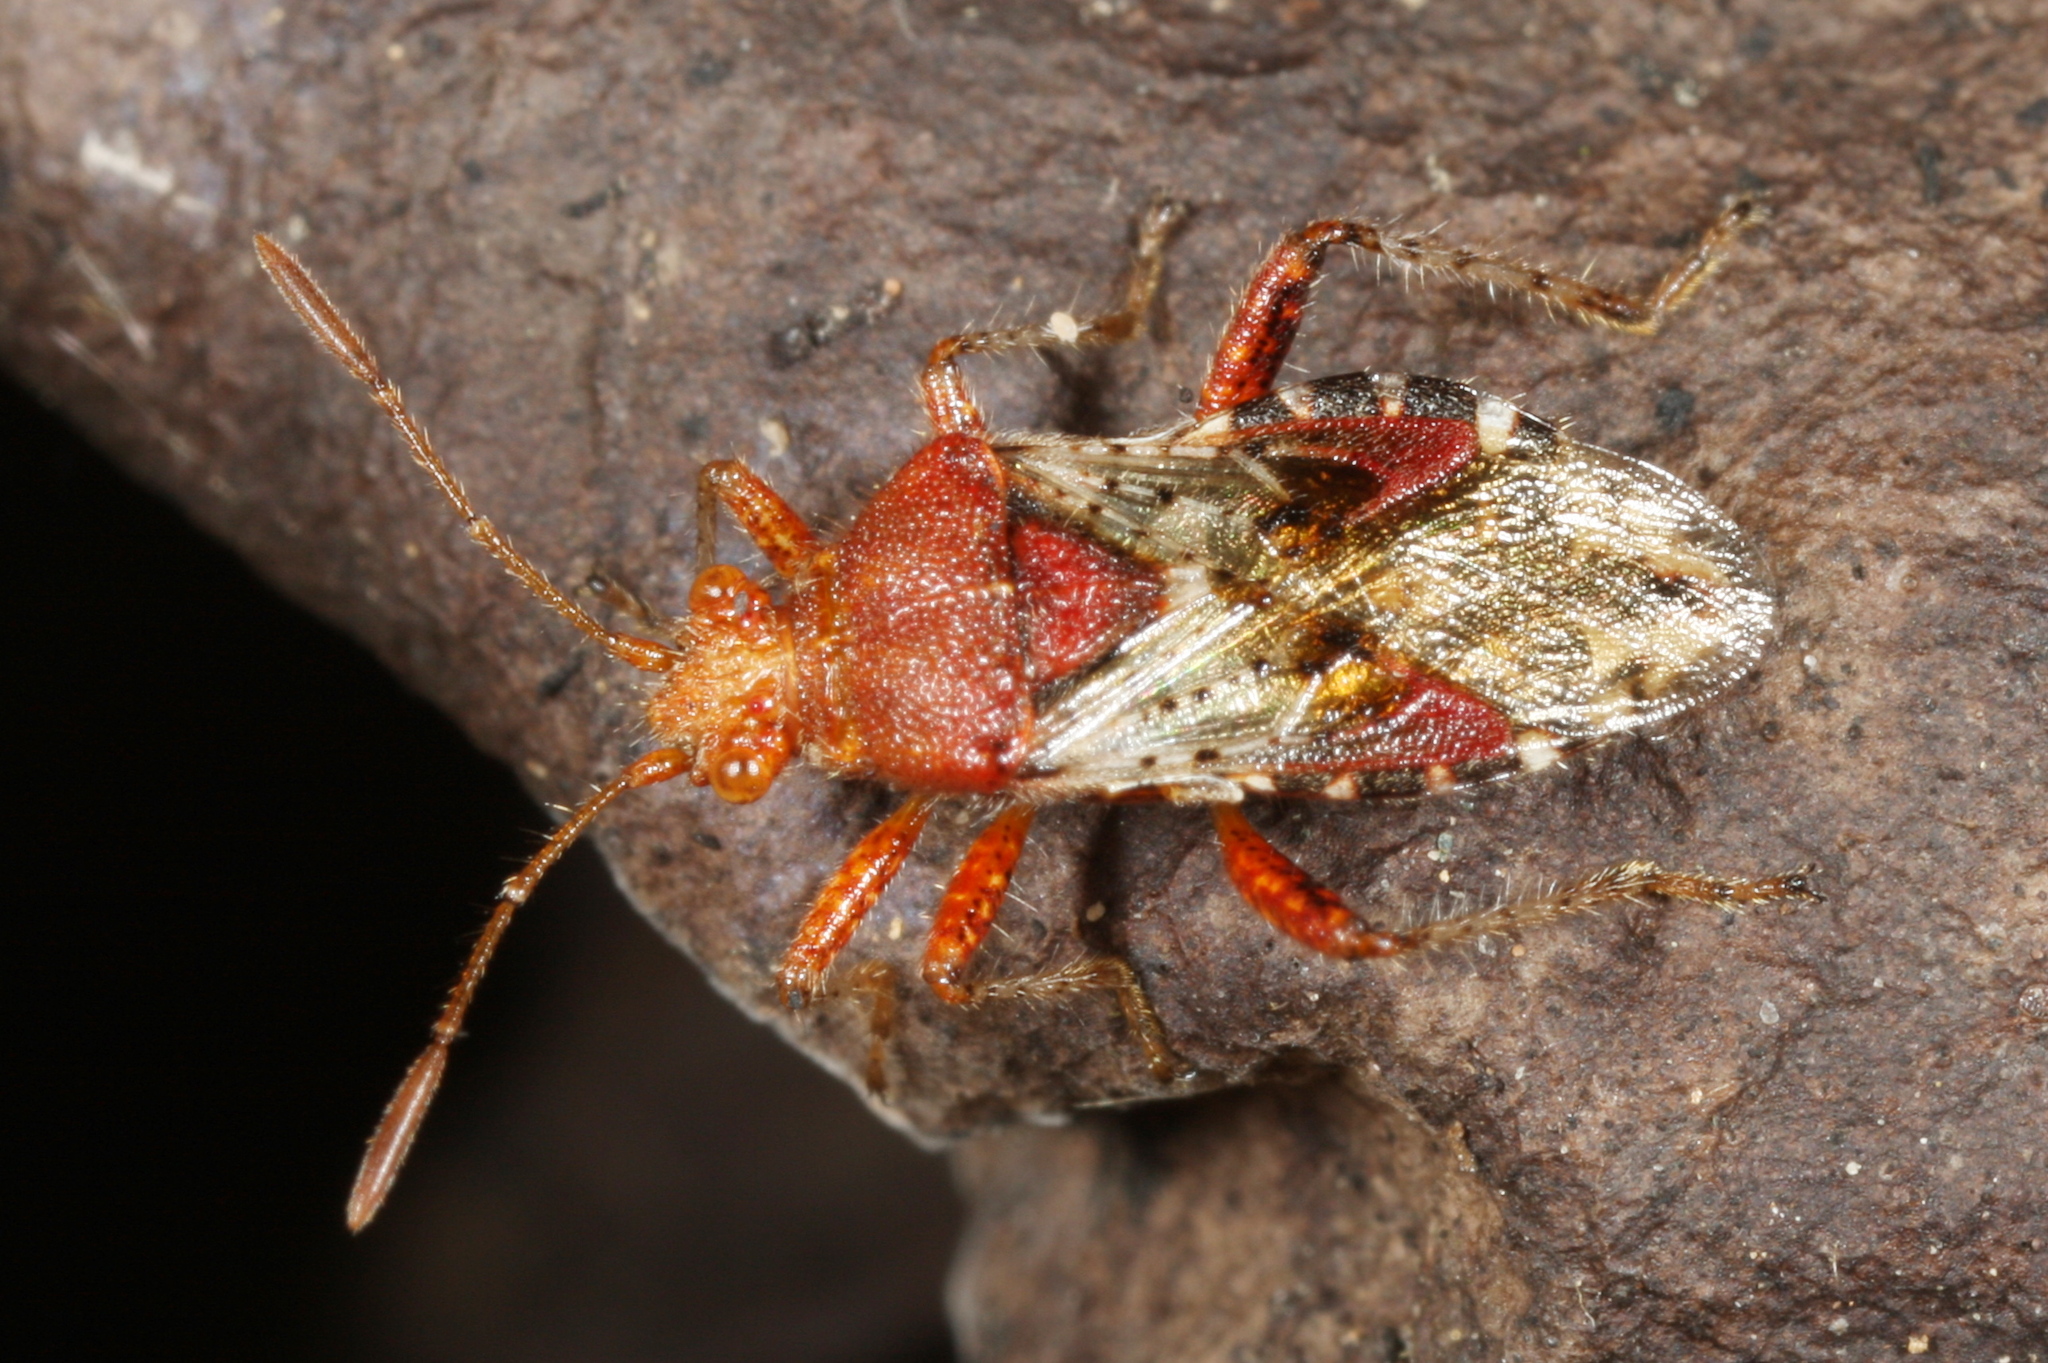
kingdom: Animalia
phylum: Arthropoda
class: Insecta
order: Hemiptera
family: Rhopalidae
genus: Rhopalus
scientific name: Rhopalus subrufus
